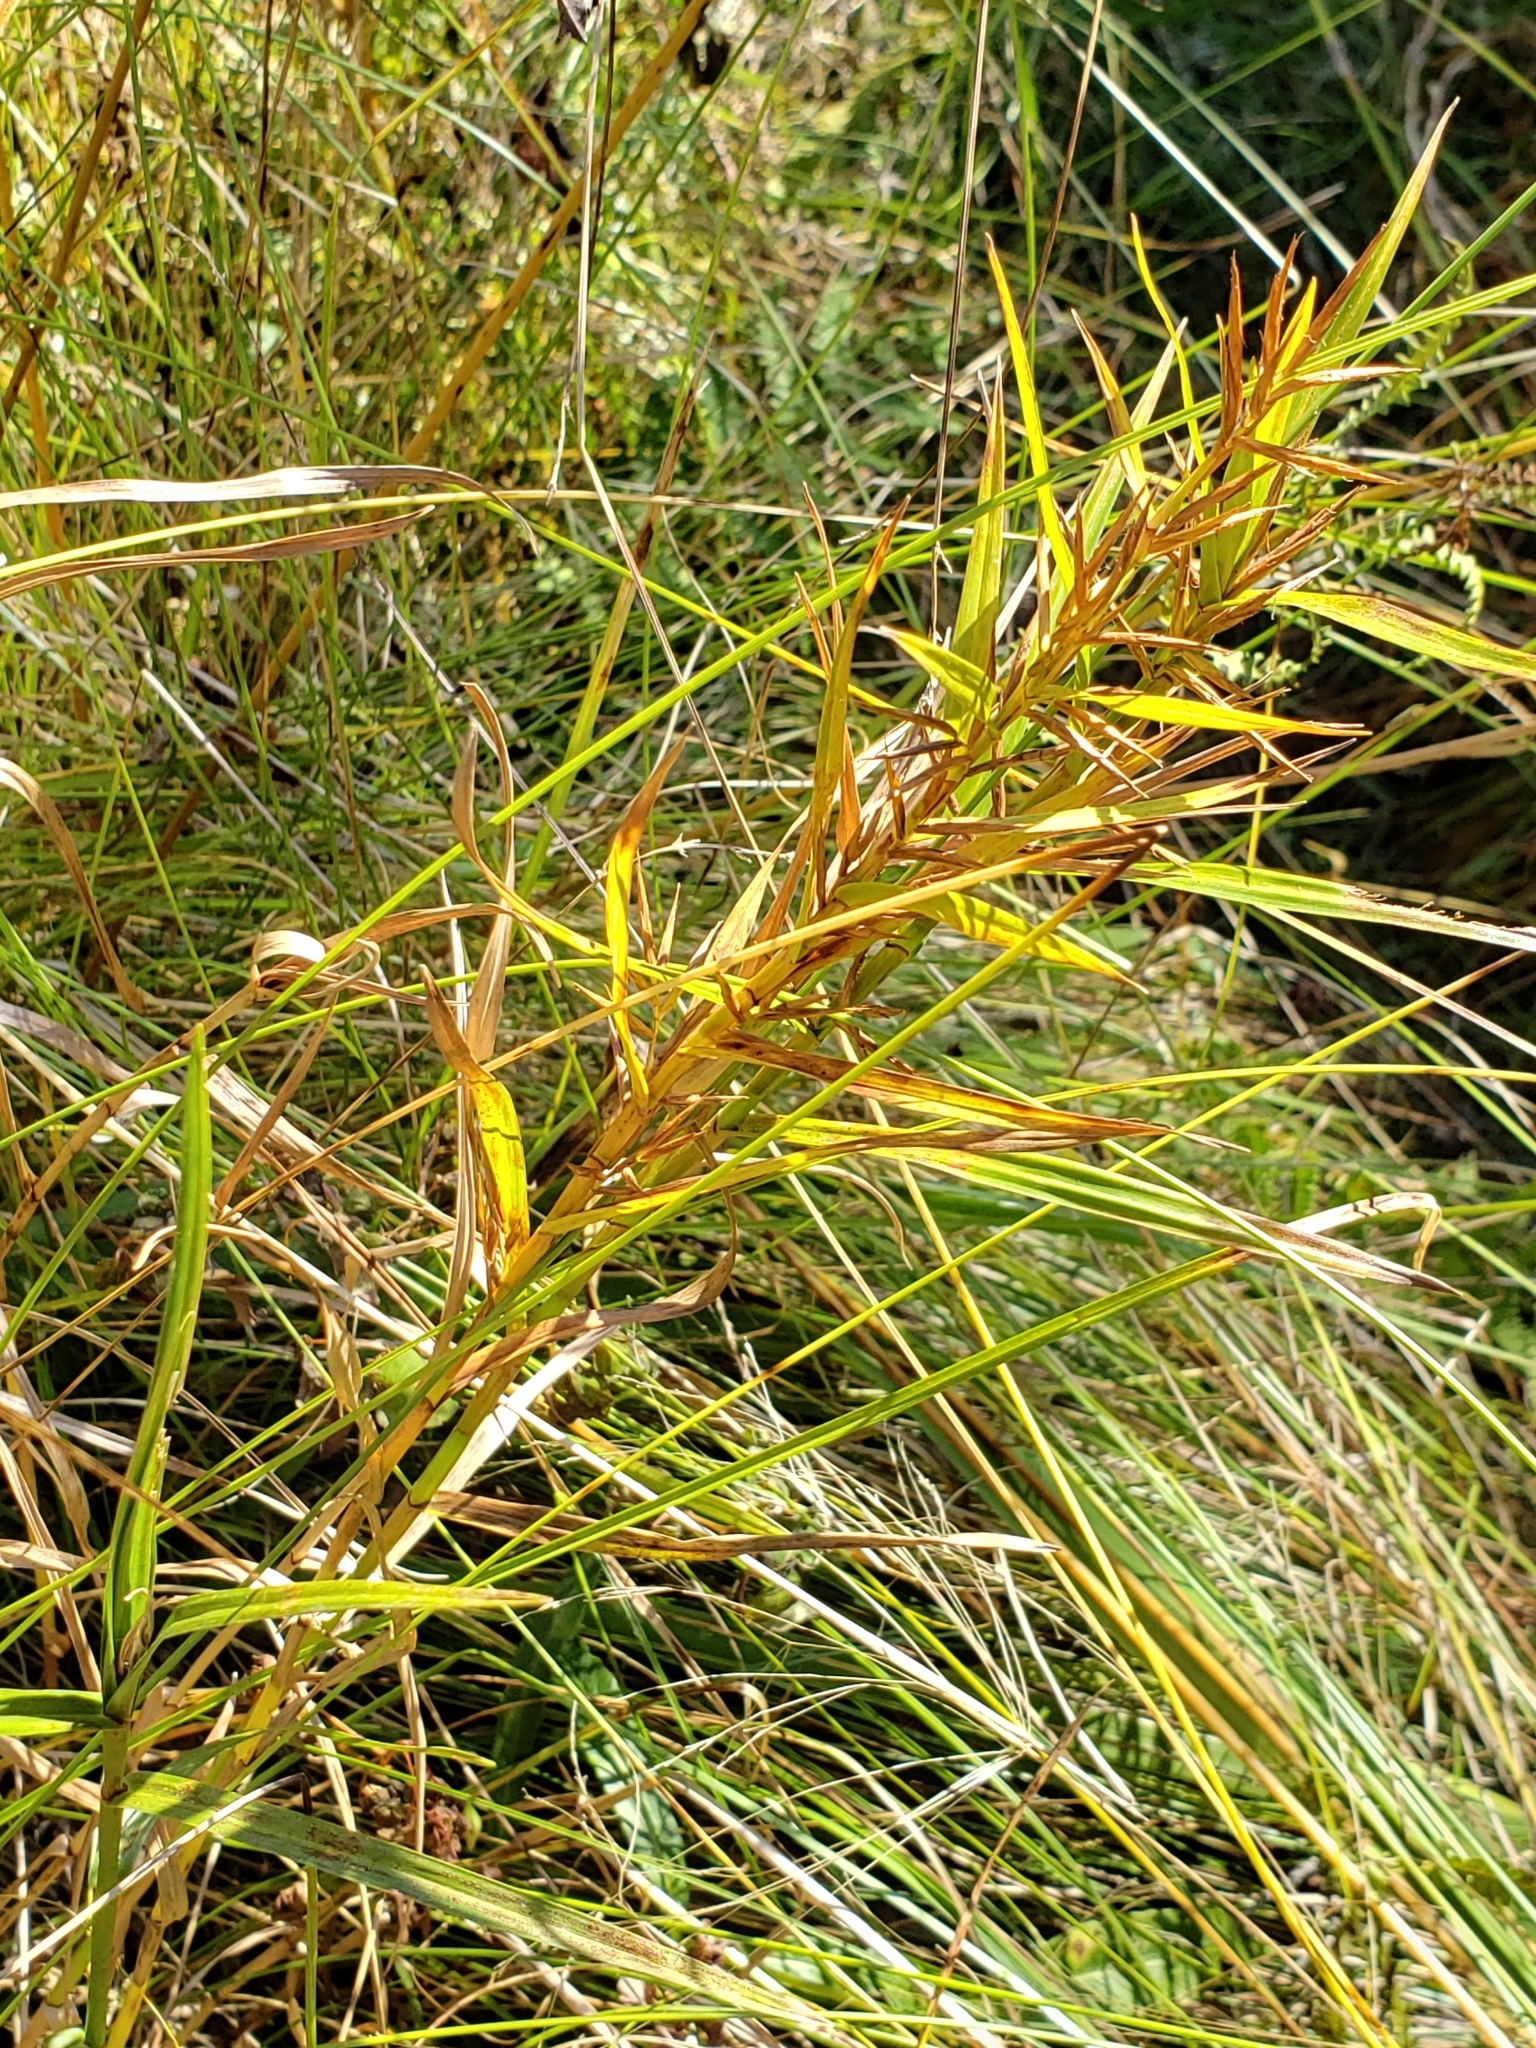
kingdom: Plantae
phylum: Tracheophyta
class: Liliopsida
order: Poales
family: Cyperaceae
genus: Dulichium
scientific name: Dulichium arundinaceum
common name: Three-way sedge
